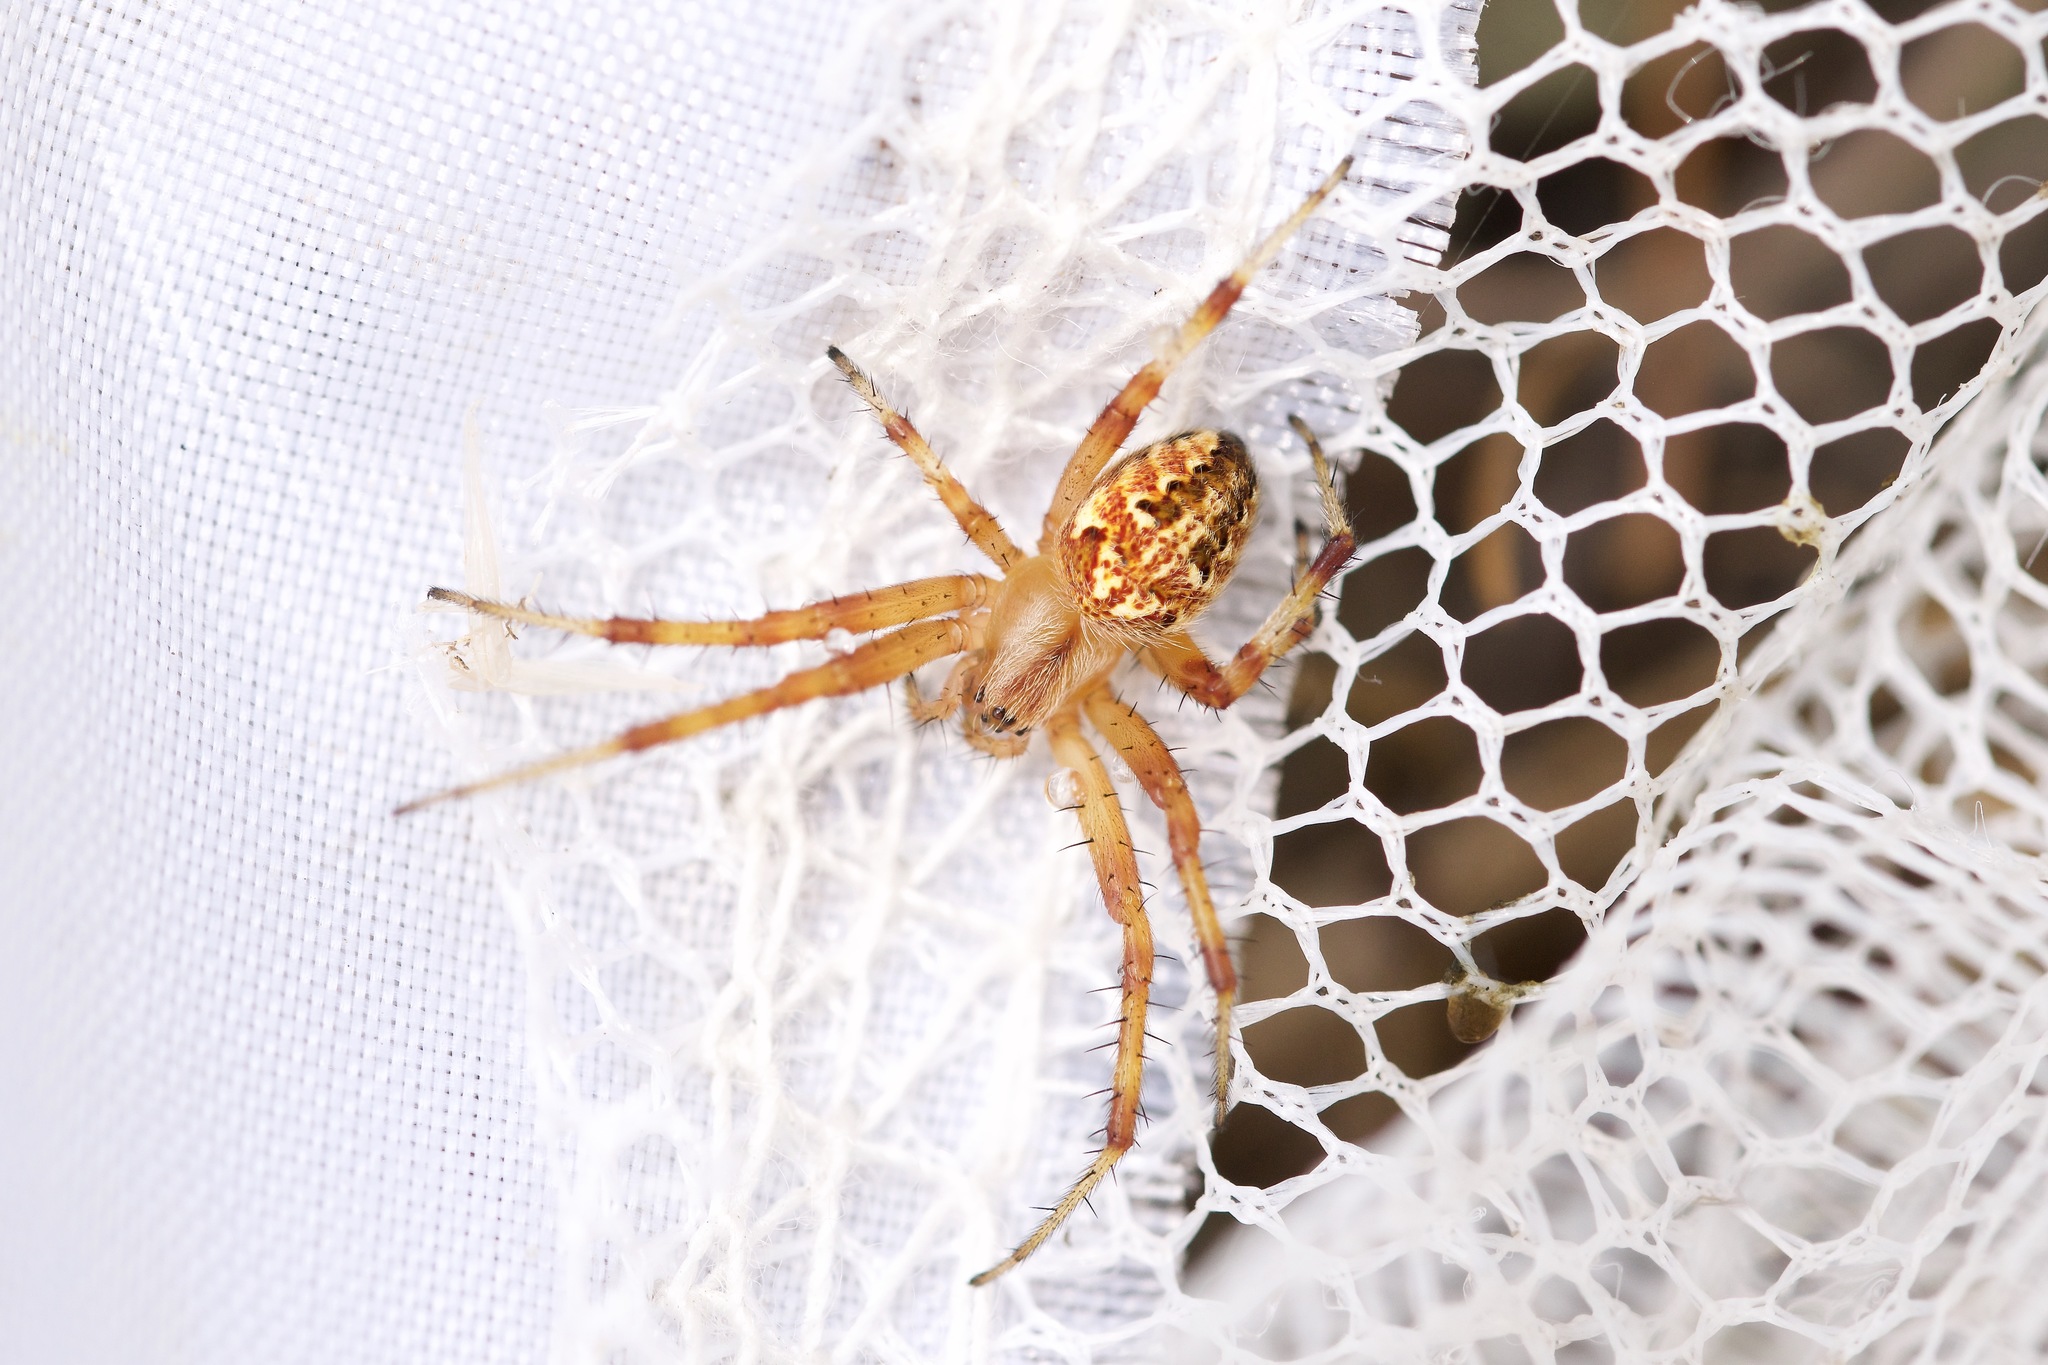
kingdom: Animalia
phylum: Arthropoda
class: Arachnida
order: Araneae
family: Araneidae
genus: Neoscona
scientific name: Neoscona arabesca
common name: Orb weavers
